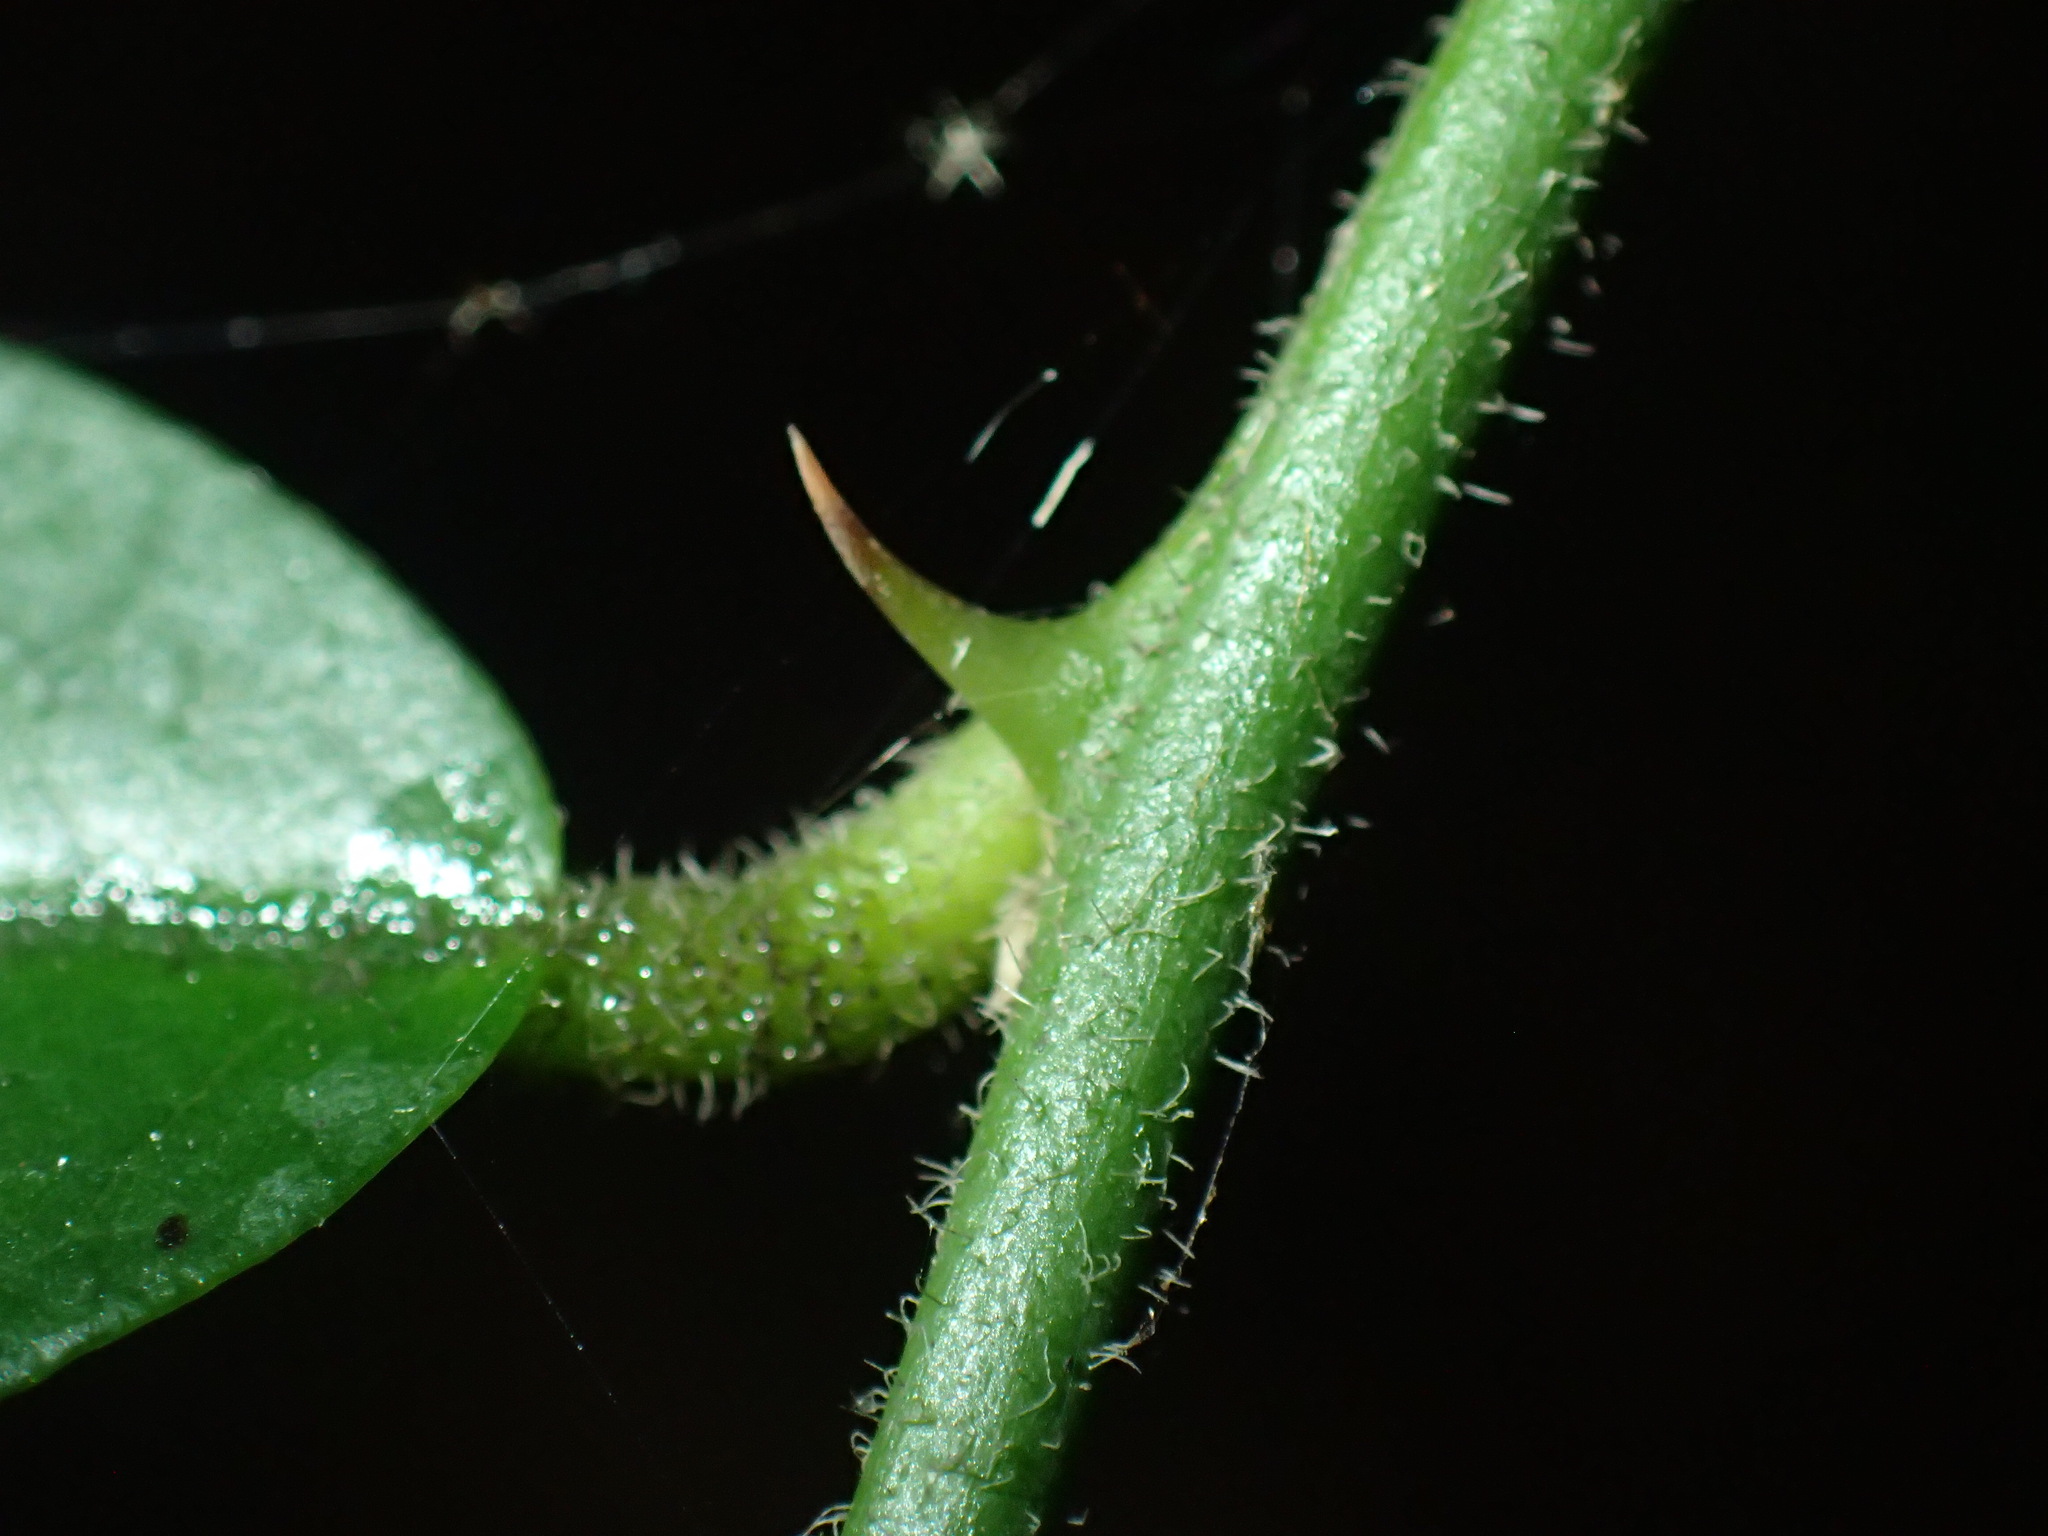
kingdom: Plantae
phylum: Tracheophyta
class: Magnoliopsida
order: Brassicales
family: Capparaceae
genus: Capparis
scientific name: Capparis brassii
